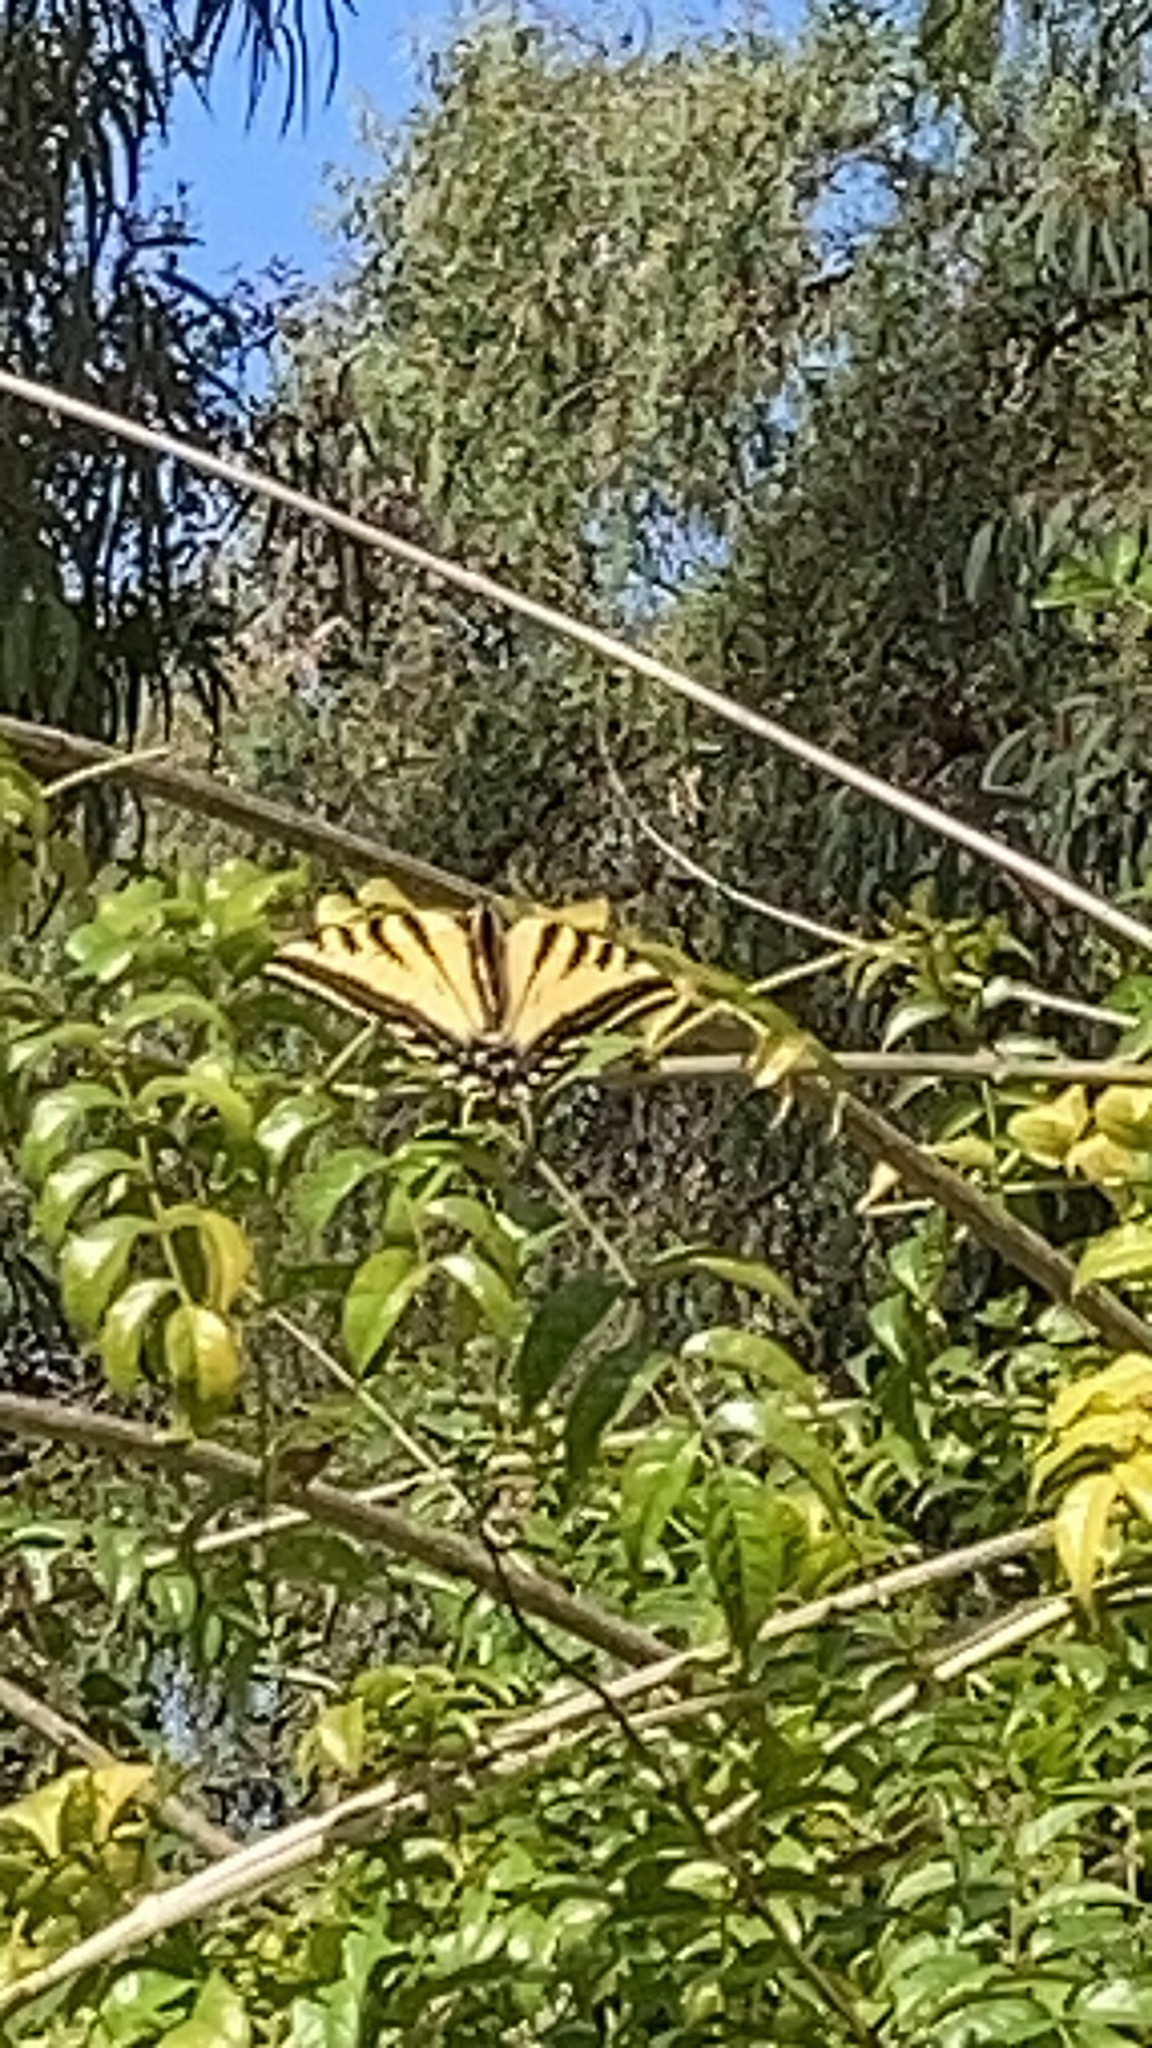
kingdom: Animalia
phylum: Arthropoda
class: Insecta
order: Lepidoptera
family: Papilionidae
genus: Papilio
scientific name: Papilio rutulus
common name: Western tiger swallowtail
